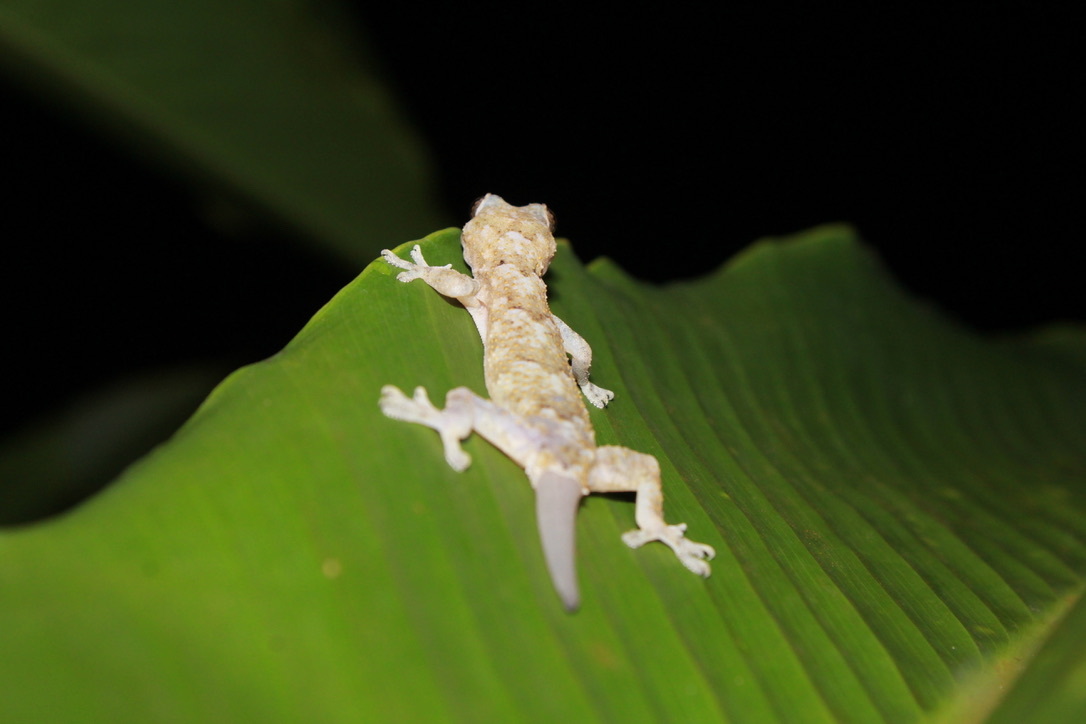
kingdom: Animalia
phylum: Chordata
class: Squamata
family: Gekkonidae
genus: Hemidactylus
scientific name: Hemidactylus mabouia
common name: House gecko
